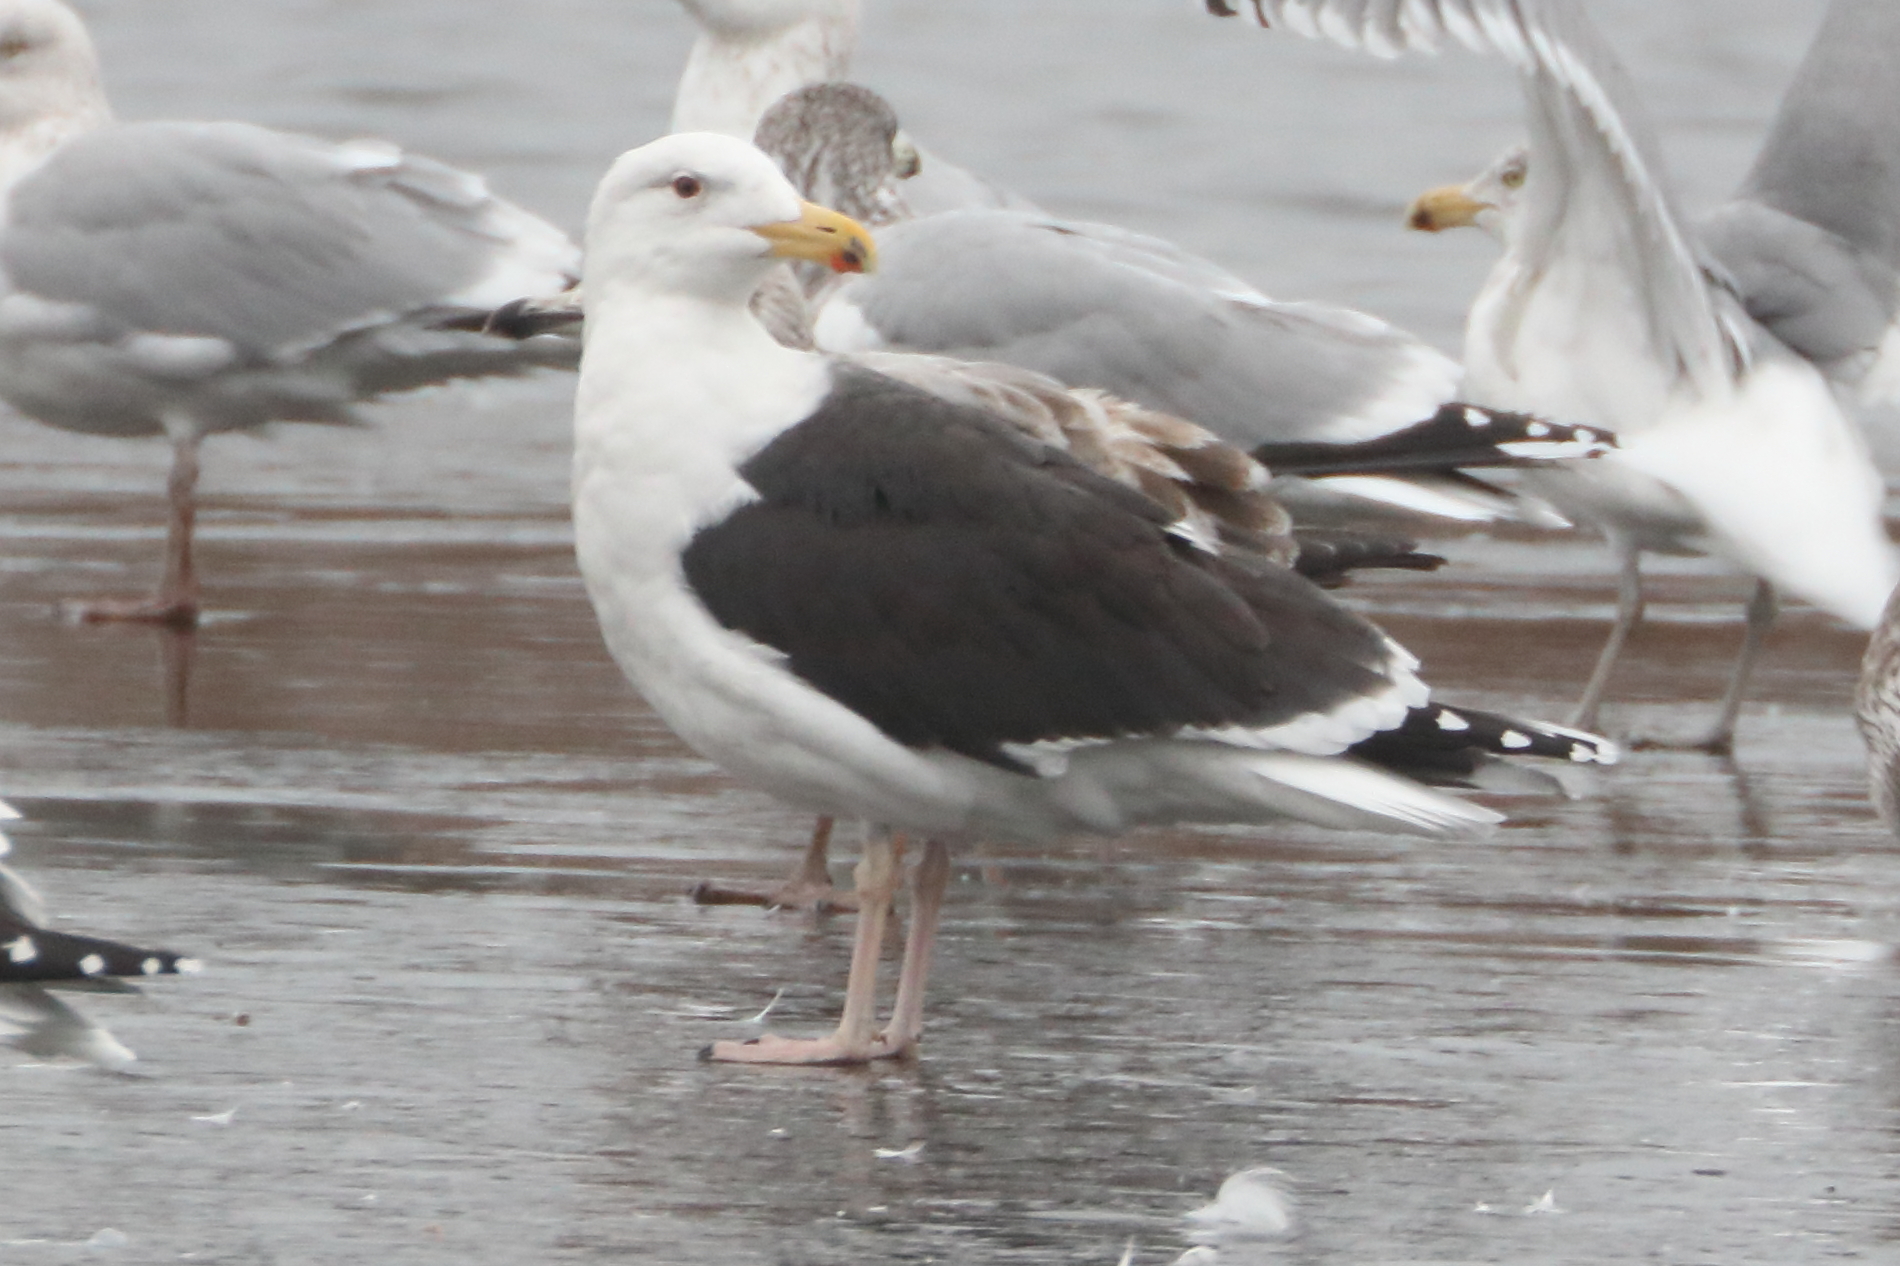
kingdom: Animalia
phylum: Chordata
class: Aves
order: Charadriiformes
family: Laridae
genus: Larus
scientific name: Larus marinus
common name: Great black-backed gull
